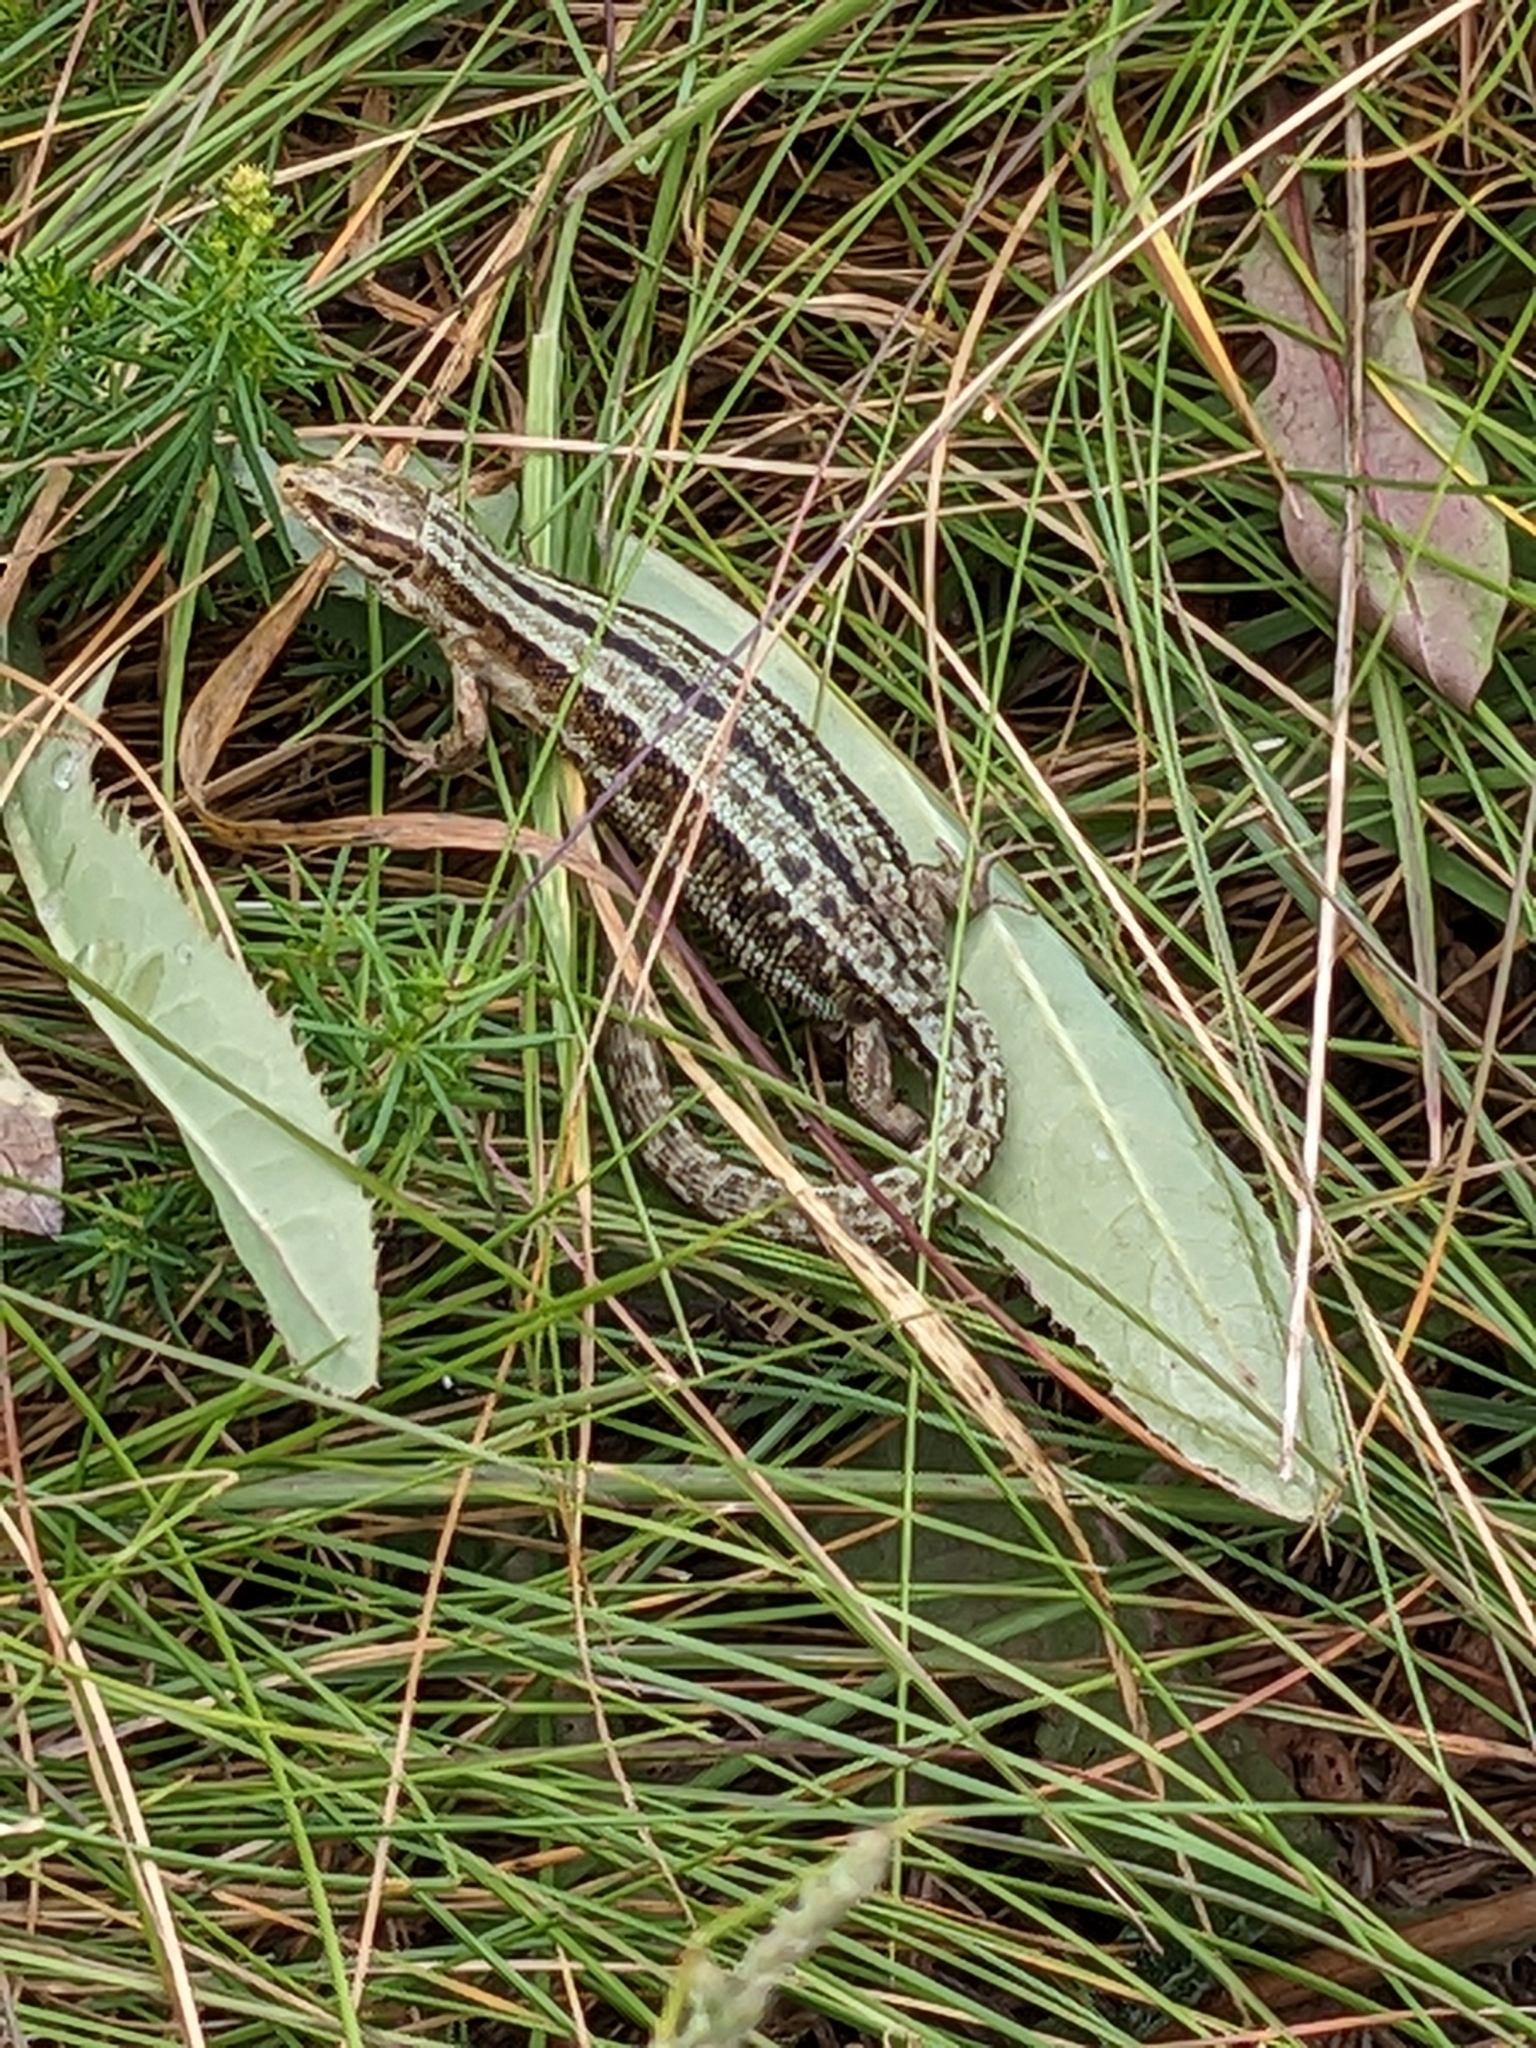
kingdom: Animalia
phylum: Chordata
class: Squamata
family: Lacertidae
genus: Zootoca
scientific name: Zootoca vivipara
